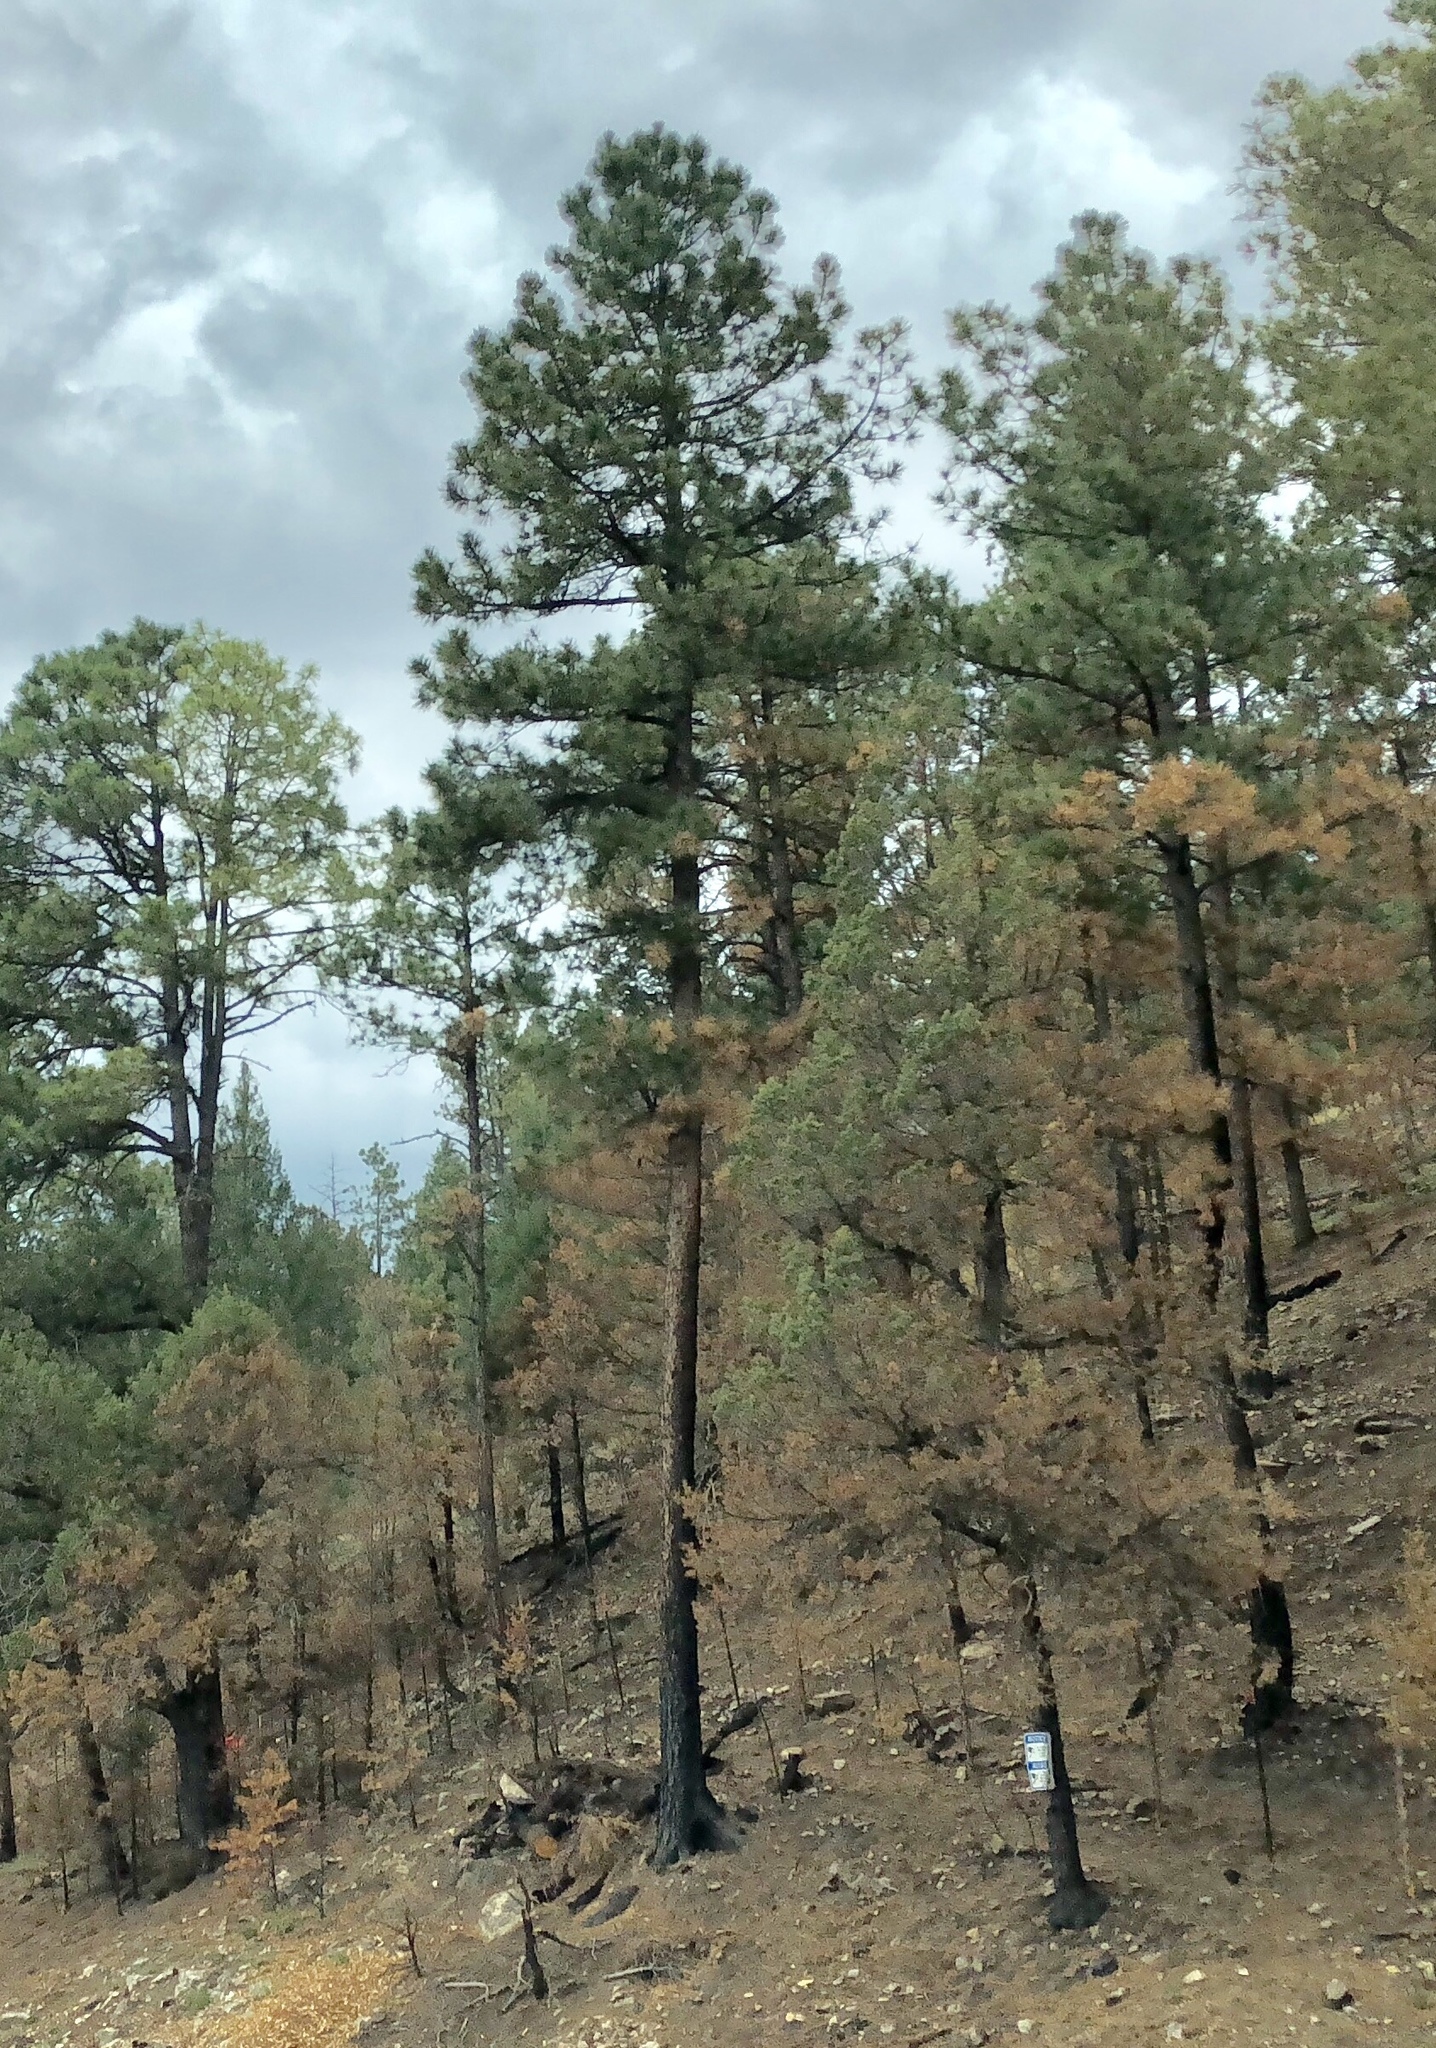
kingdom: Plantae
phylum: Tracheophyta
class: Pinopsida
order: Pinales
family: Pinaceae
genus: Pinus
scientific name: Pinus ponderosa
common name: Western yellow-pine
